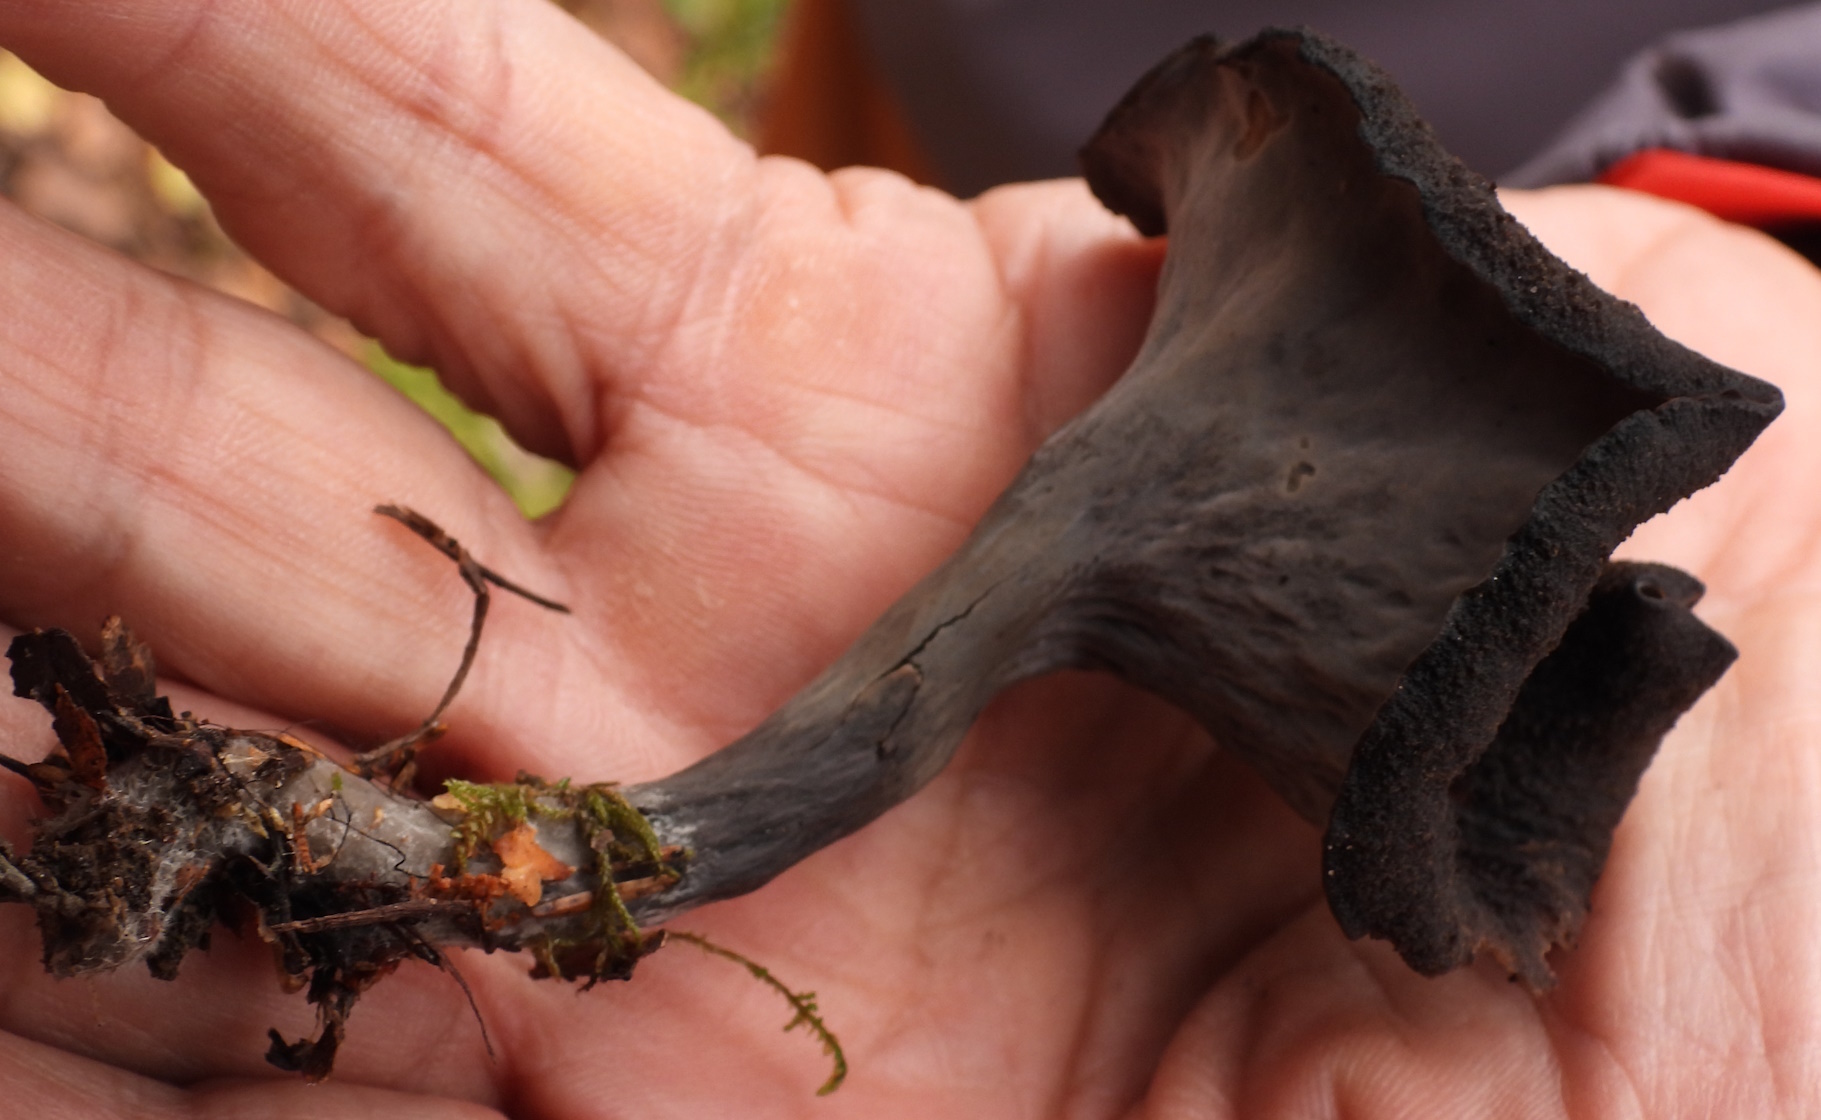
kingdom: Fungi
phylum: Basidiomycota
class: Agaricomycetes
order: Cantharellales
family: Hydnaceae
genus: Craterellus
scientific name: Craterellus cornucopioides
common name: Horn of plenty
